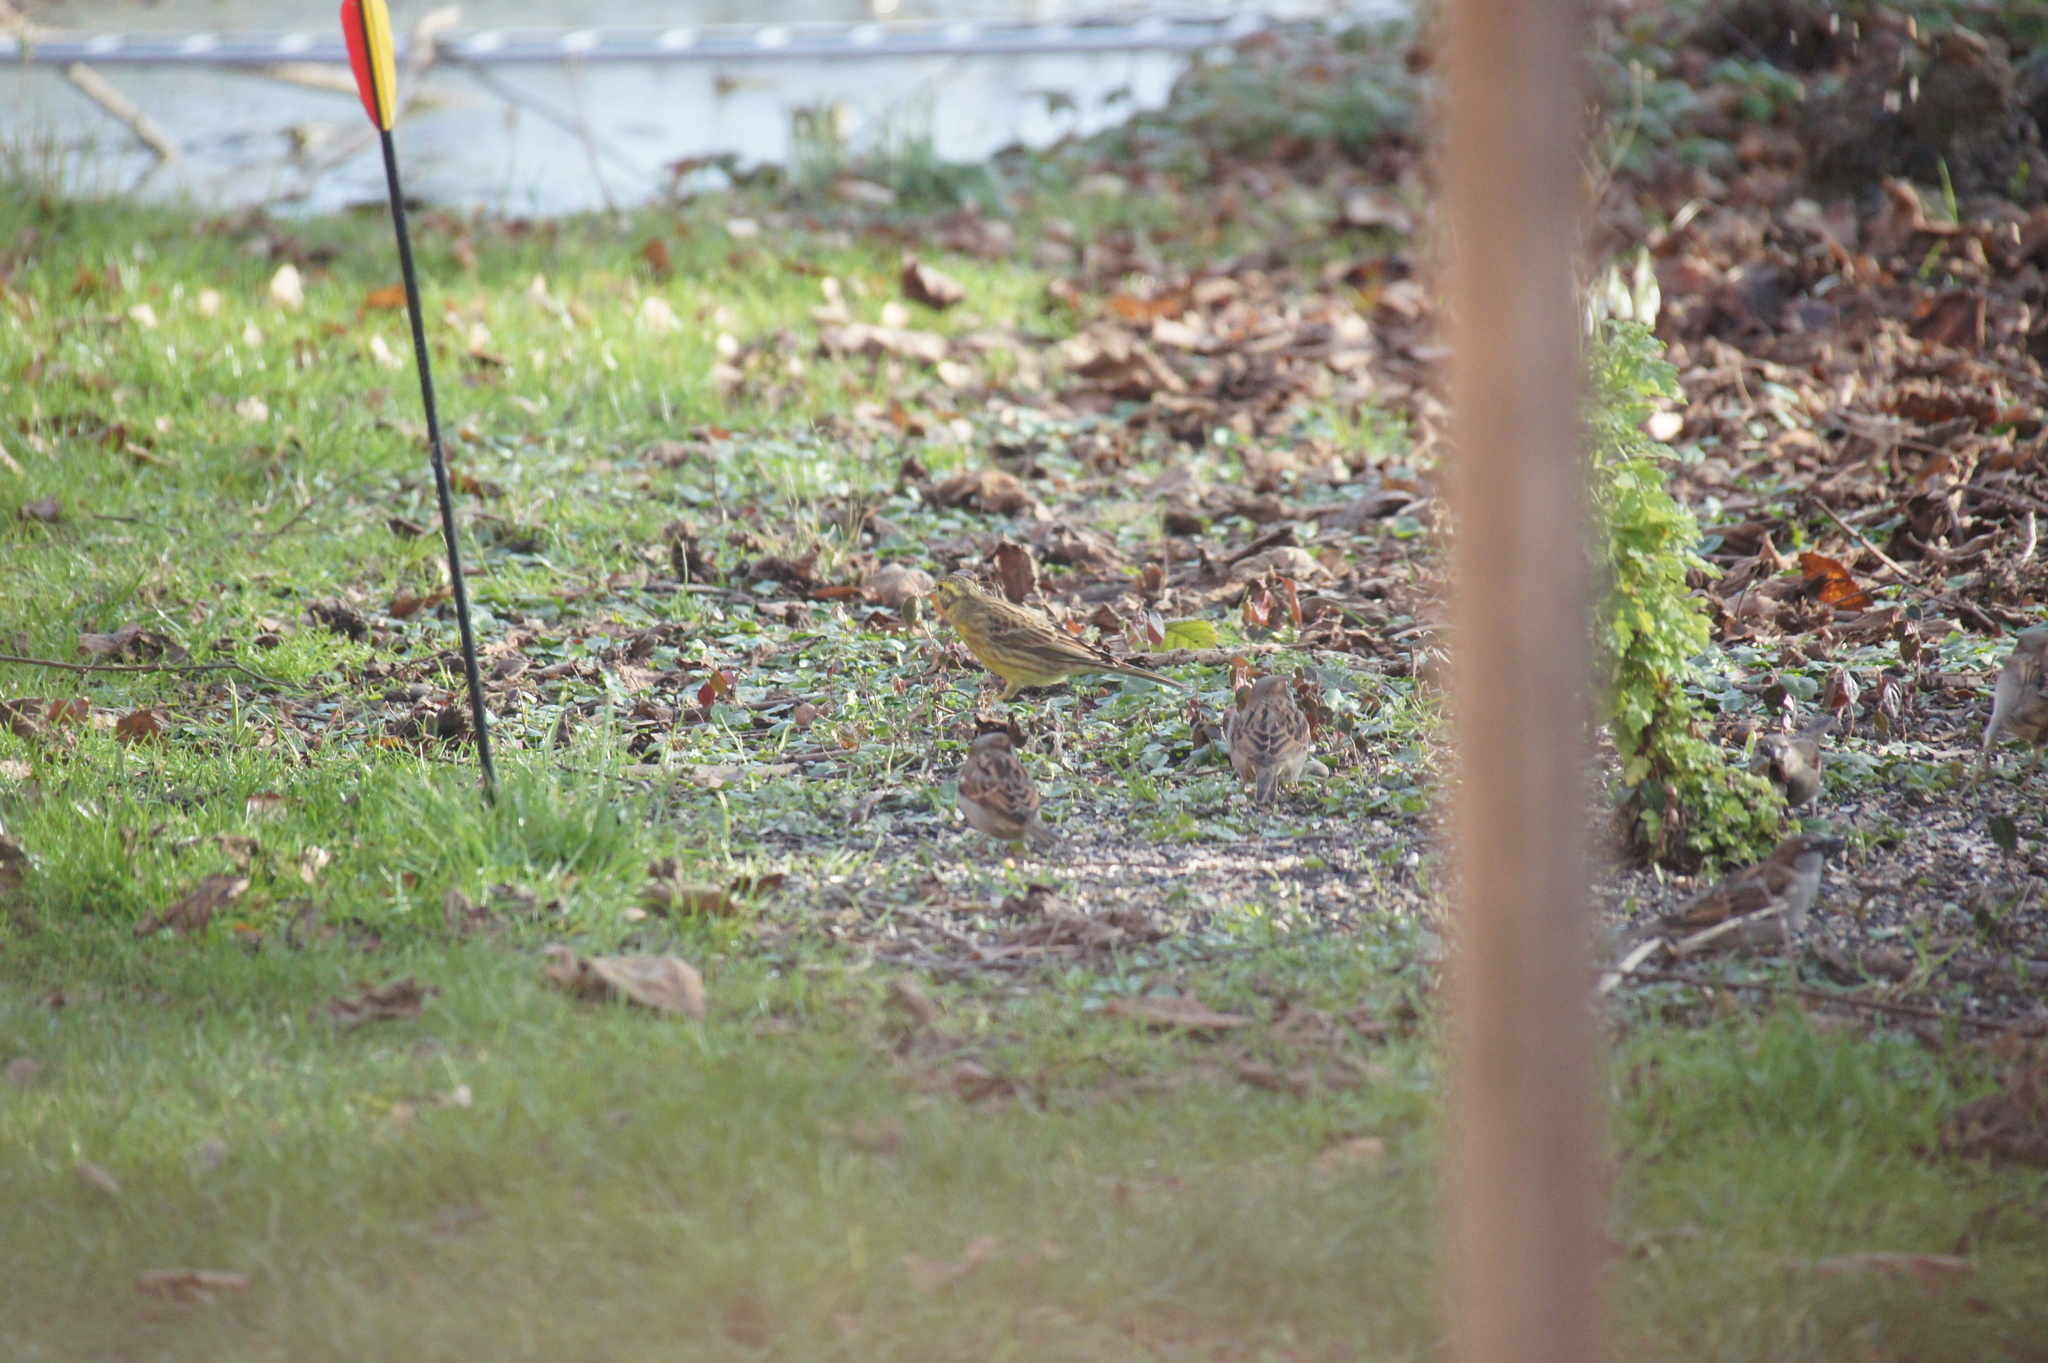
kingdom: Animalia
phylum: Chordata
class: Aves
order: Passeriformes
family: Emberizidae
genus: Emberiza
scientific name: Emberiza citrinella
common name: Yellowhammer
